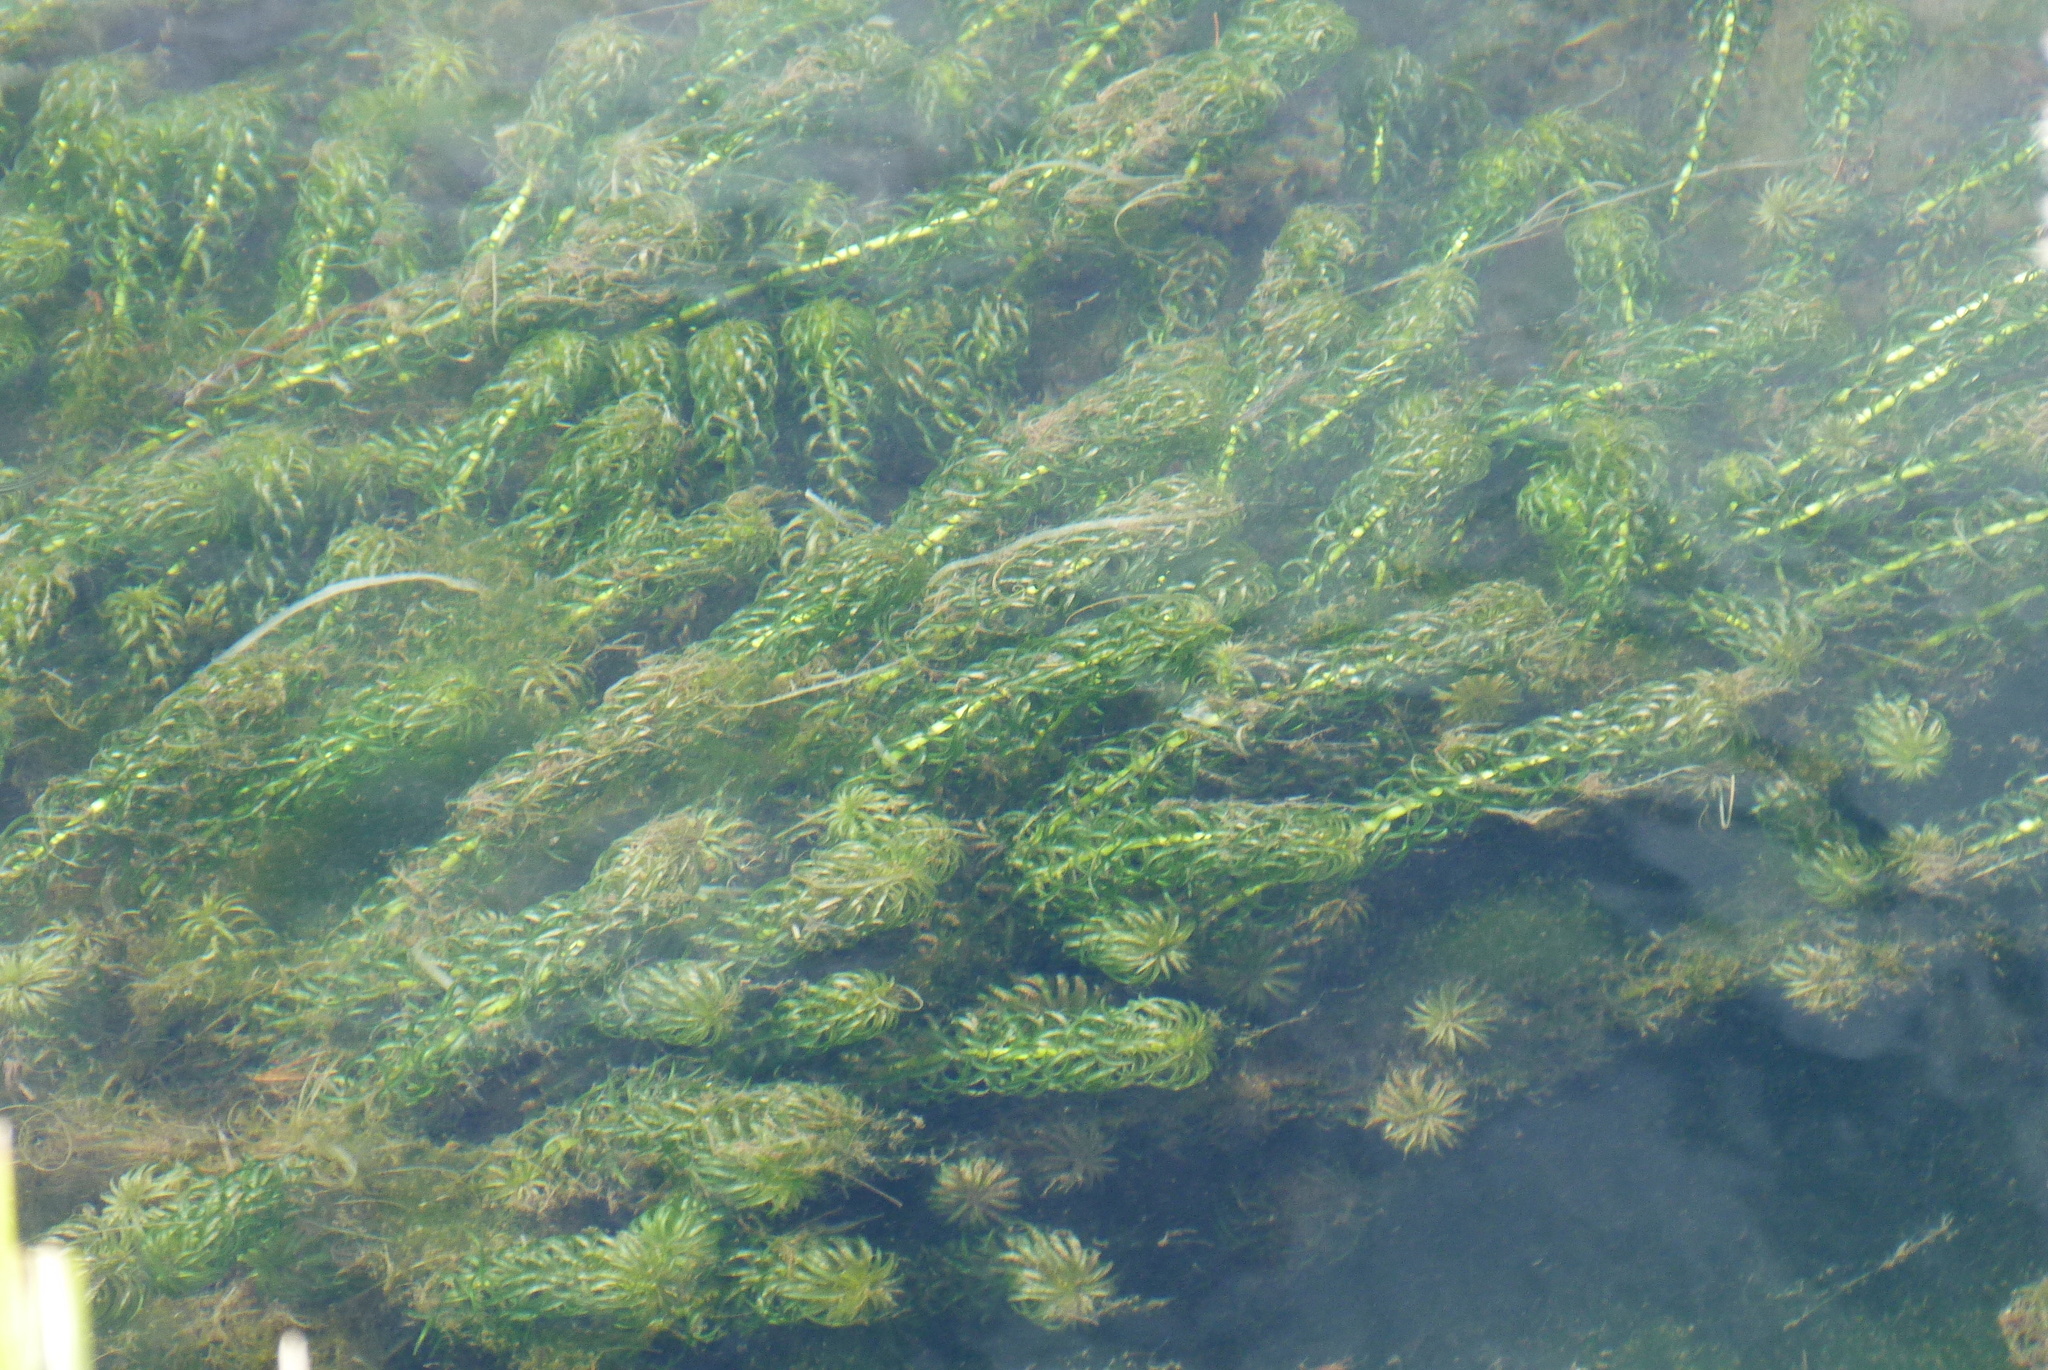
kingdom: Plantae
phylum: Tracheophyta
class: Liliopsida
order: Alismatales
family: Hydrocharitaceae
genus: Lagarosiphon
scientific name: Lagarosiphon major
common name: Curly waterweed
